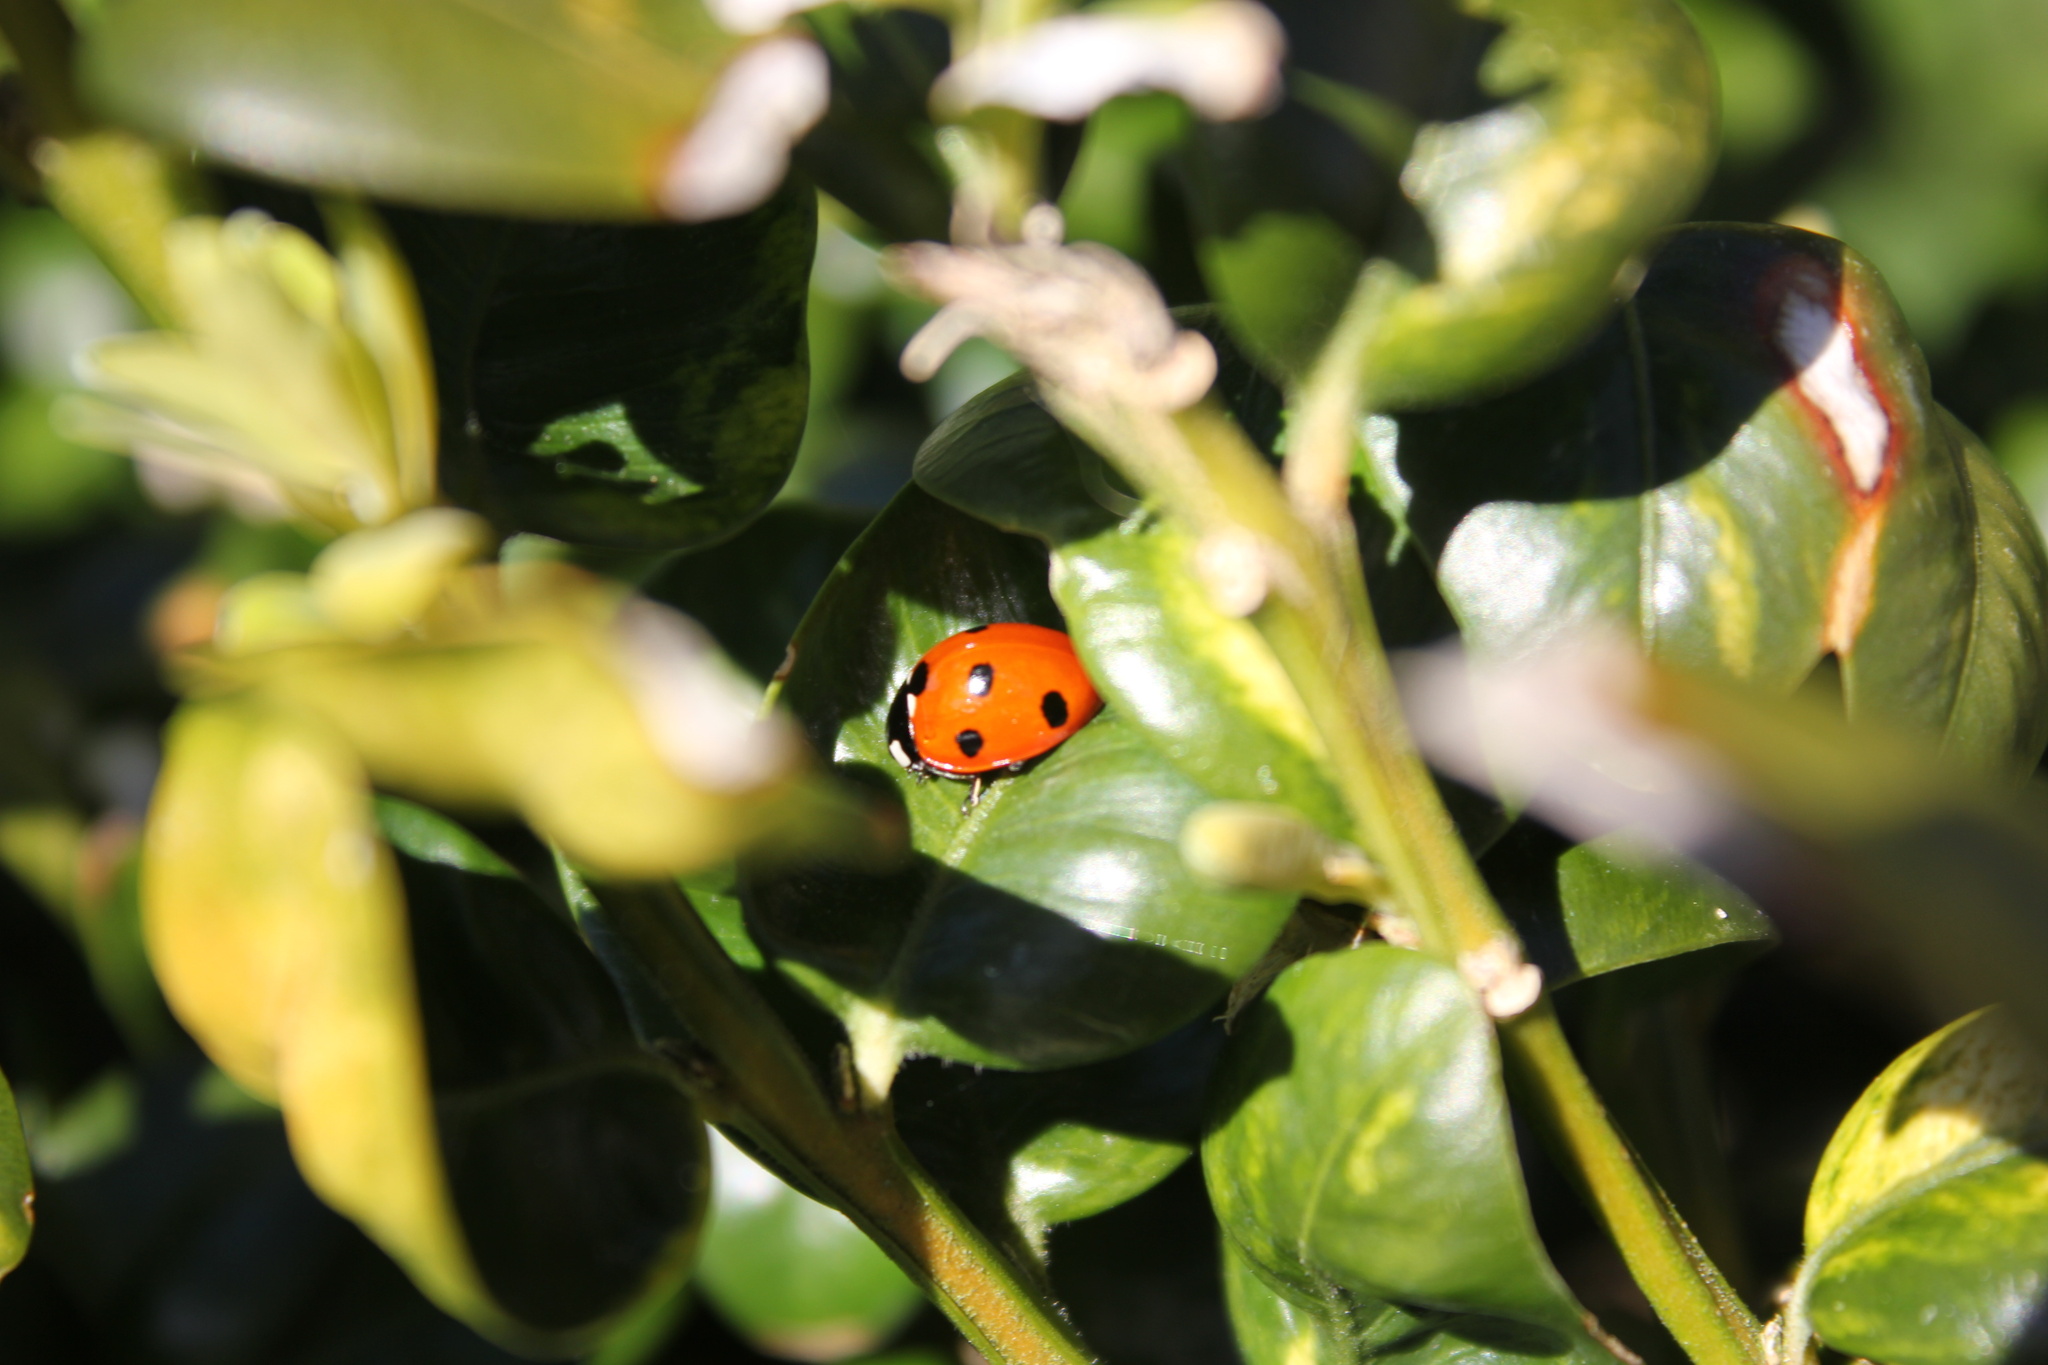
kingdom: Animalia
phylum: Arthropoda
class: Insecta
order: Coleoptera
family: Coccinellidae
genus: Coccinella
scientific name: Coccinella septempunctata
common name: Sevenspotted lady beetle
